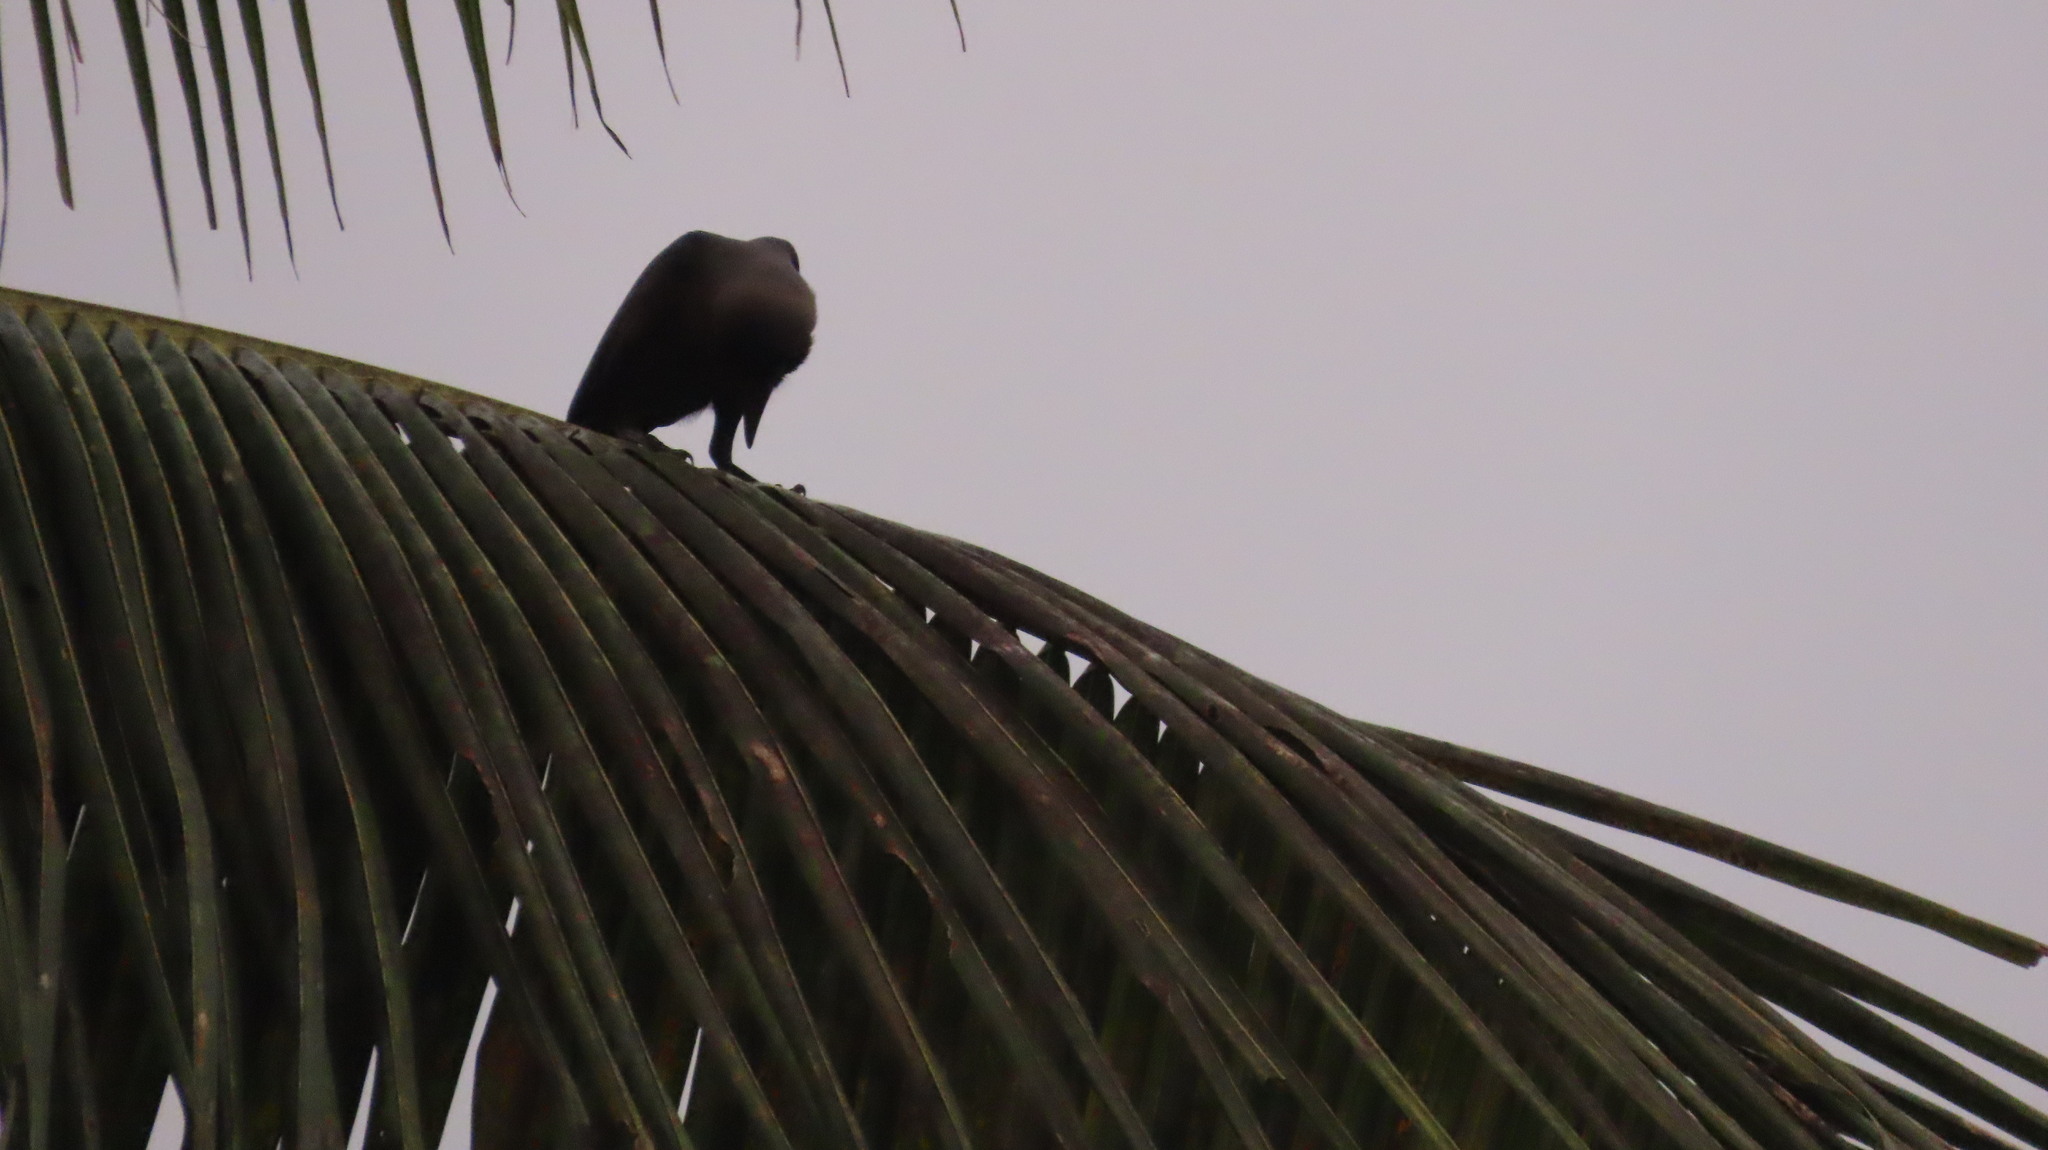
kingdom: Animalia
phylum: Chordata
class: Aves
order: Passeriformes
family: Corvidae
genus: Corvus
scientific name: Corvus splendens
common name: House crow
